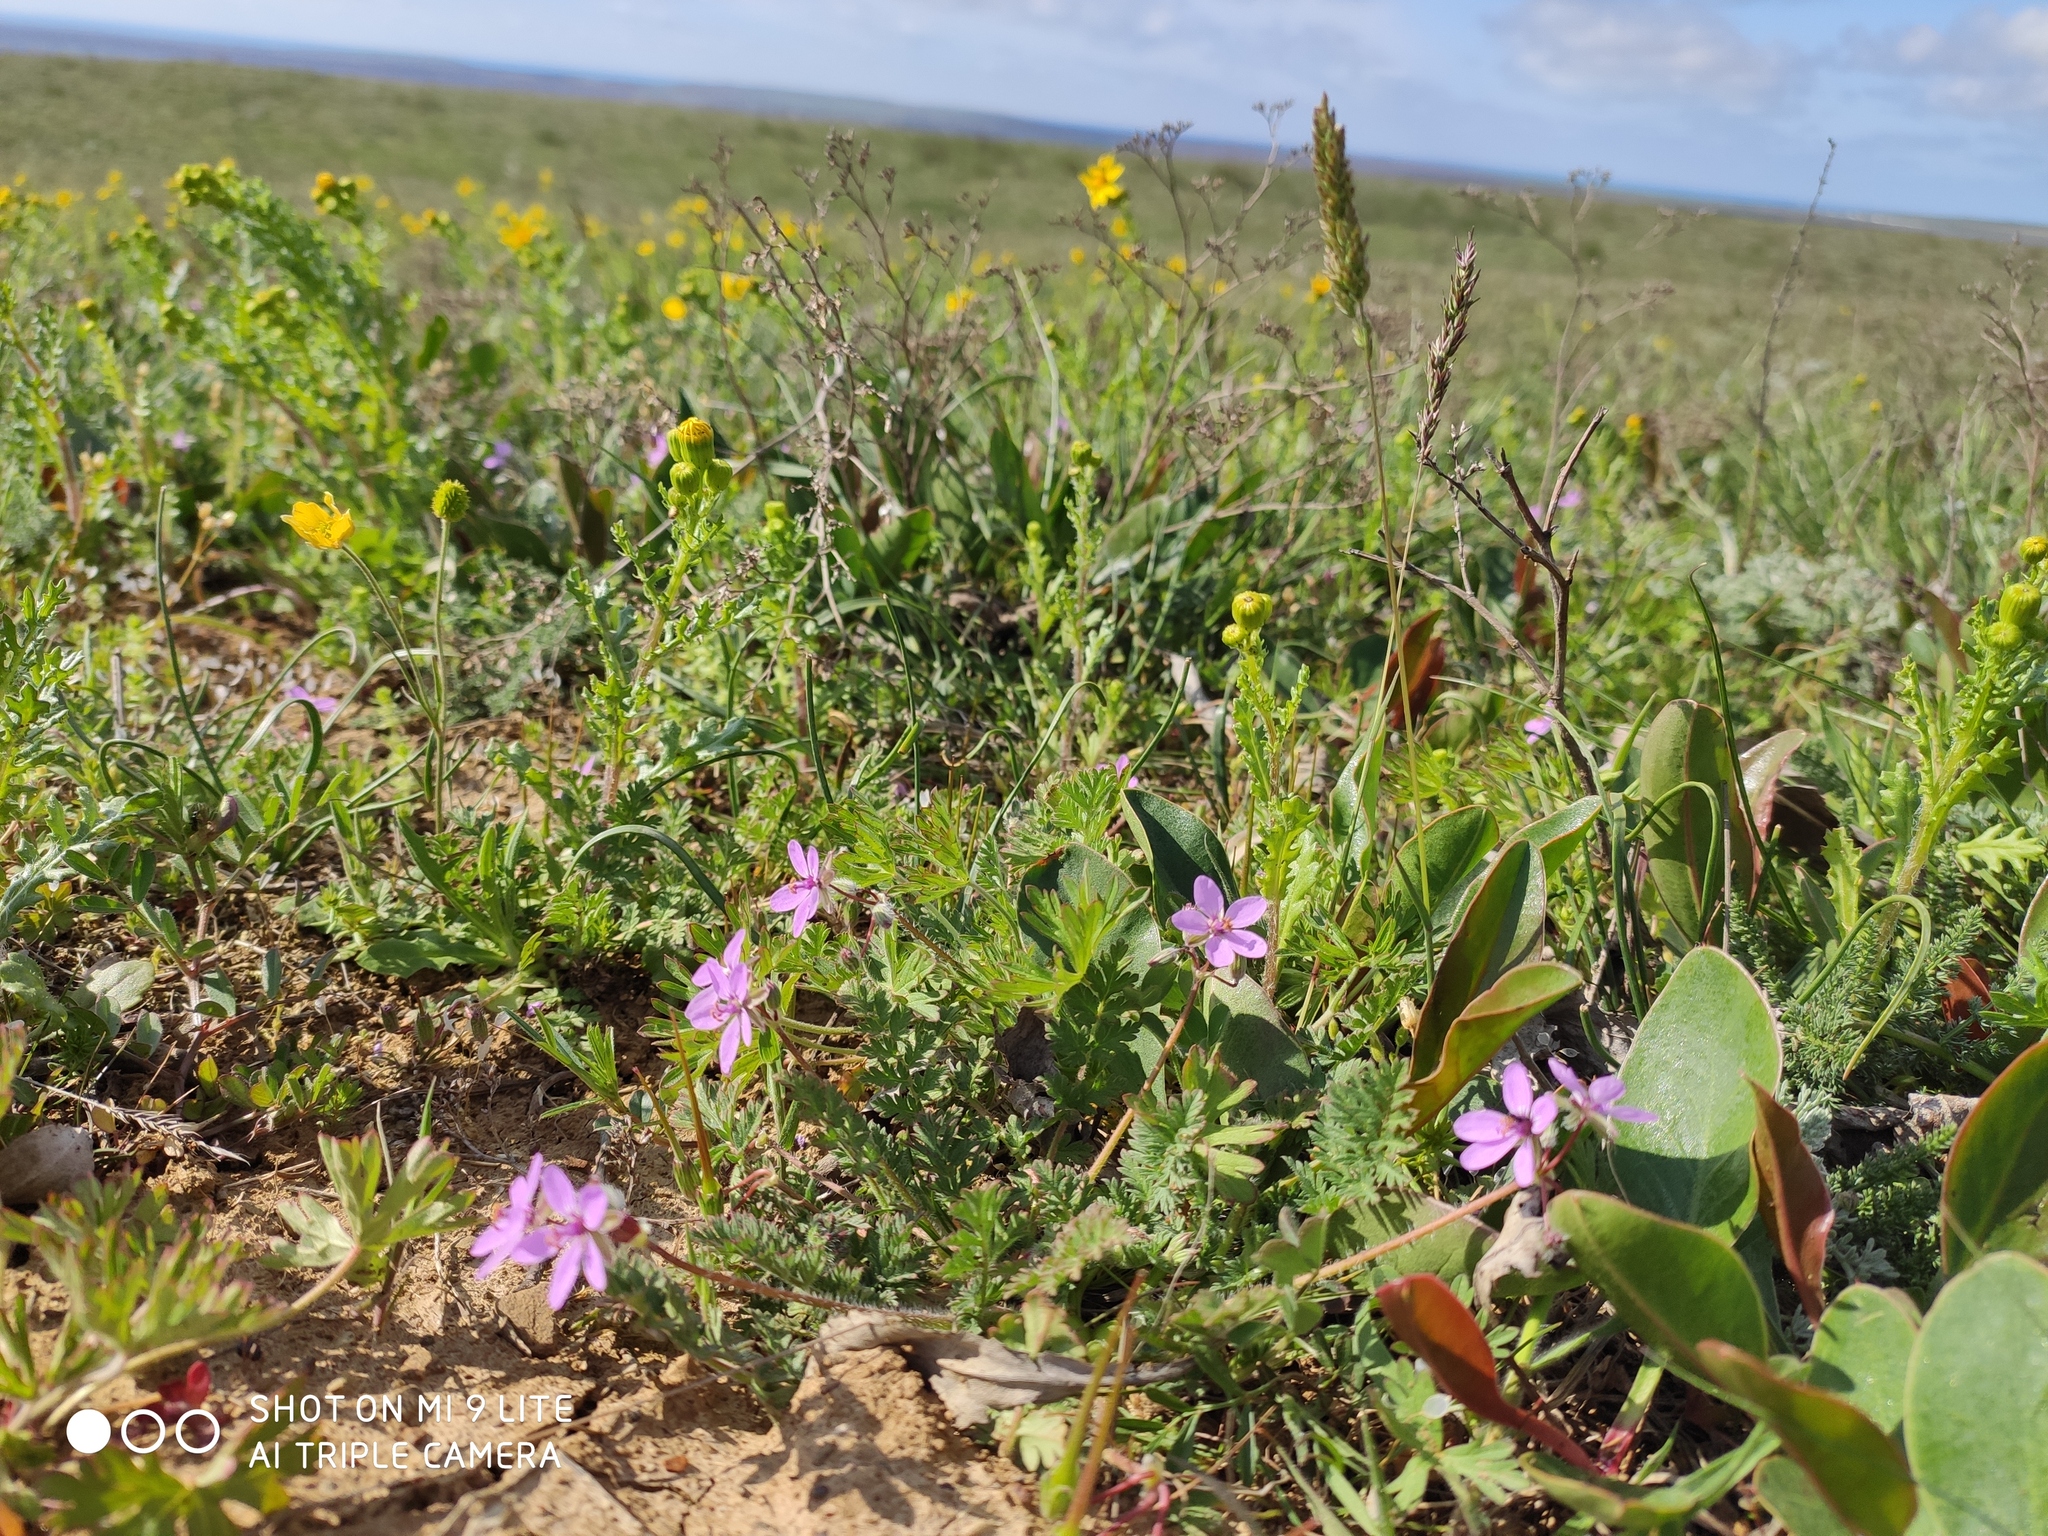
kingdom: Plantae
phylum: Tracheophyta
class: Magnoliopsida
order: Geraniales
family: Geraniaceae
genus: Erodium
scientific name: Erodium cicutarium
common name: Common stork's-bill
